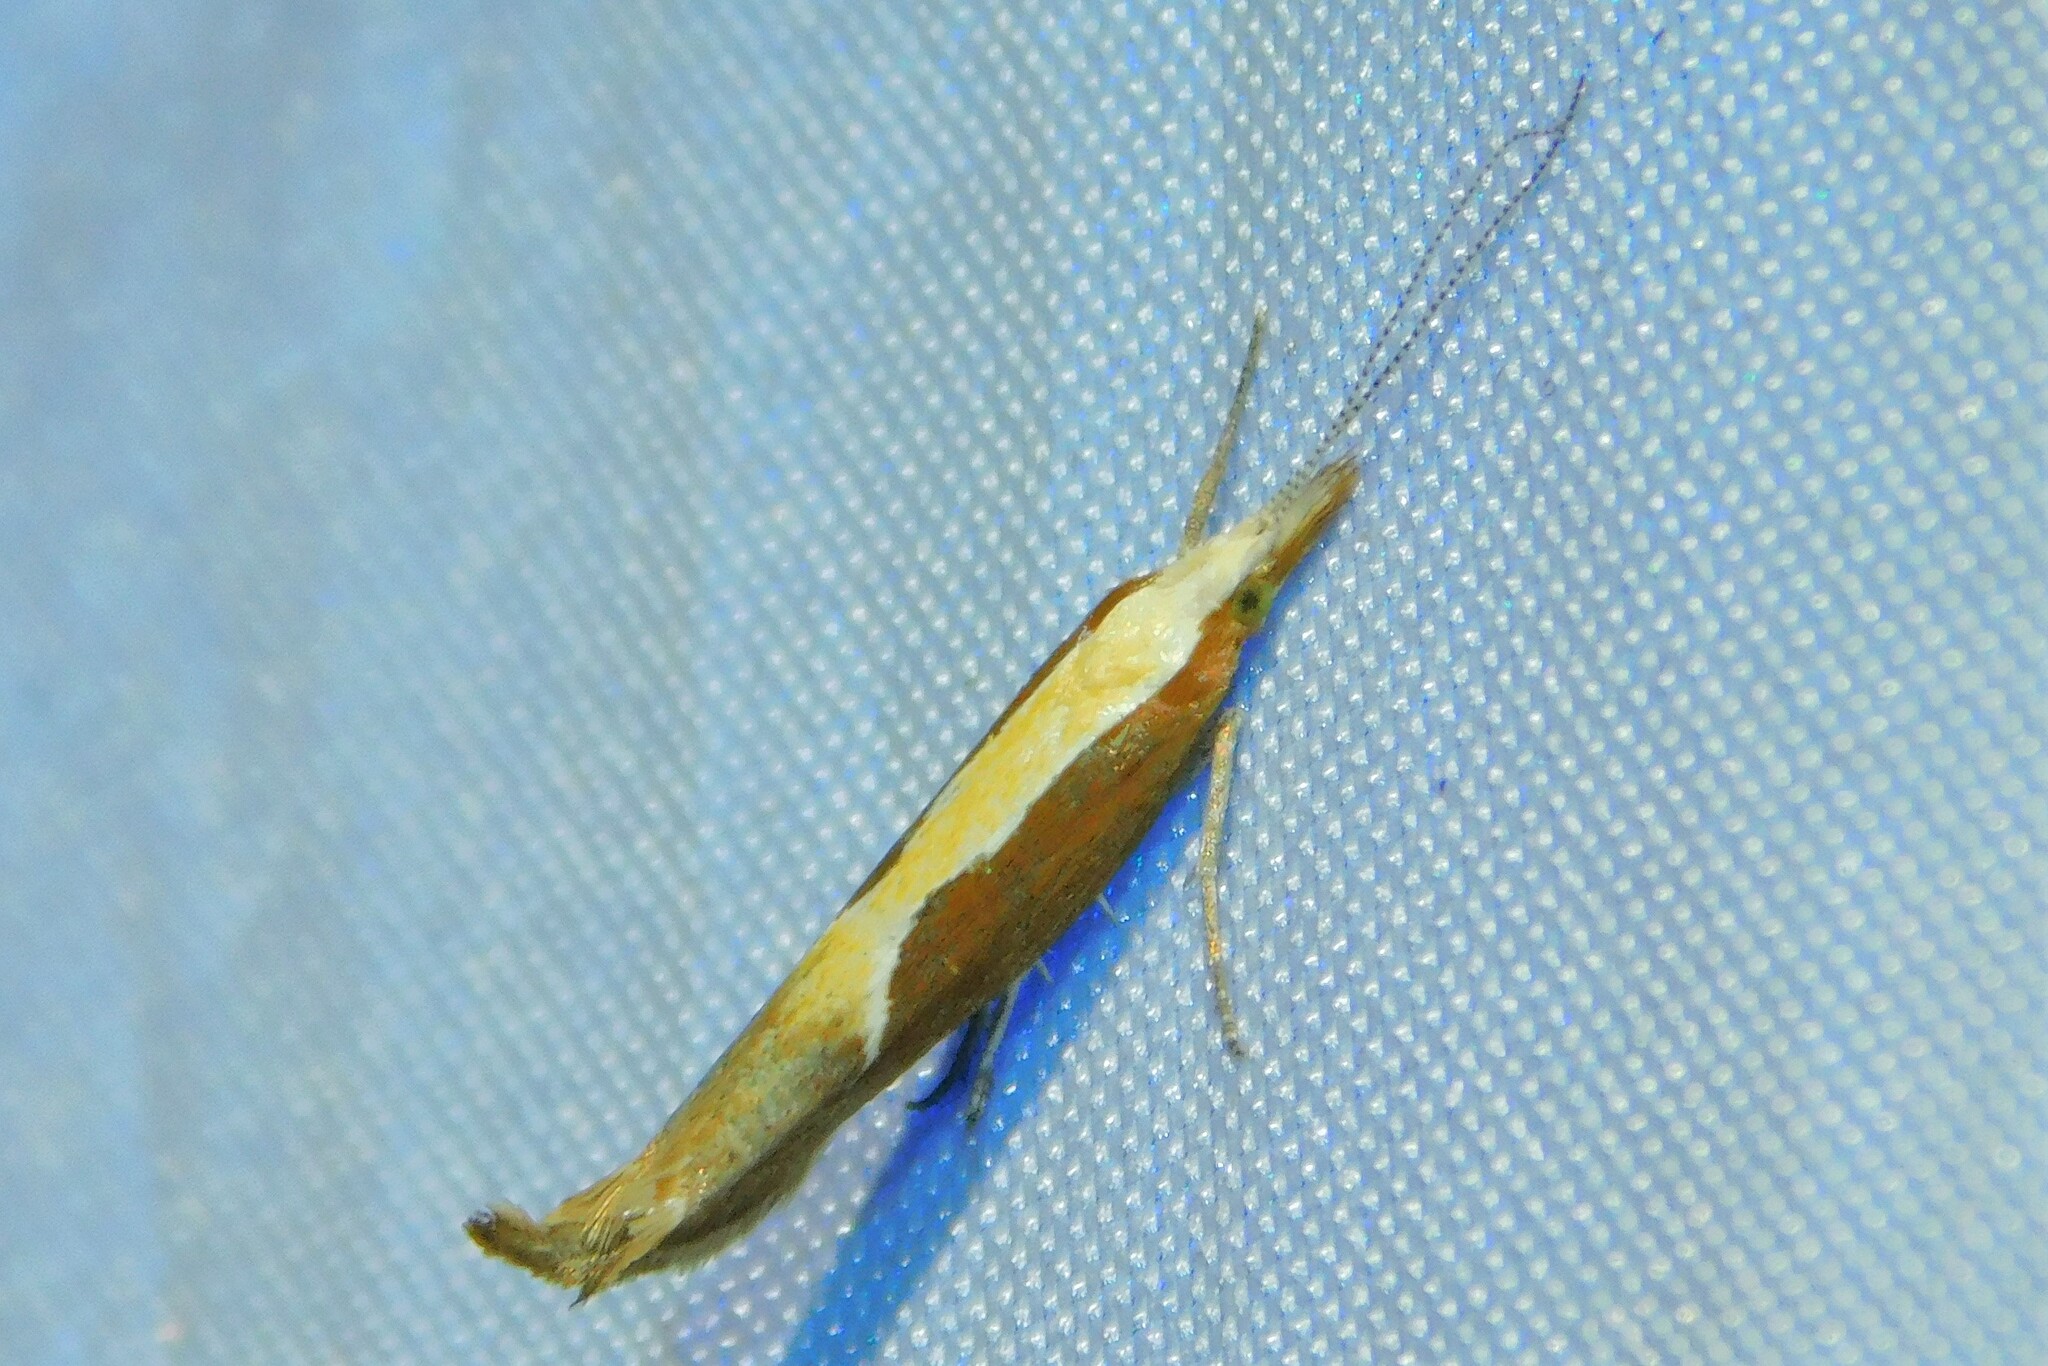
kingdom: Animalia
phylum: Arthropoda
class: Insecta
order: Lepidoptera
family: Ypsolophidae
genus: Ypsolopha
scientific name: Ypsolopha dentella
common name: Honeysuckle moth
